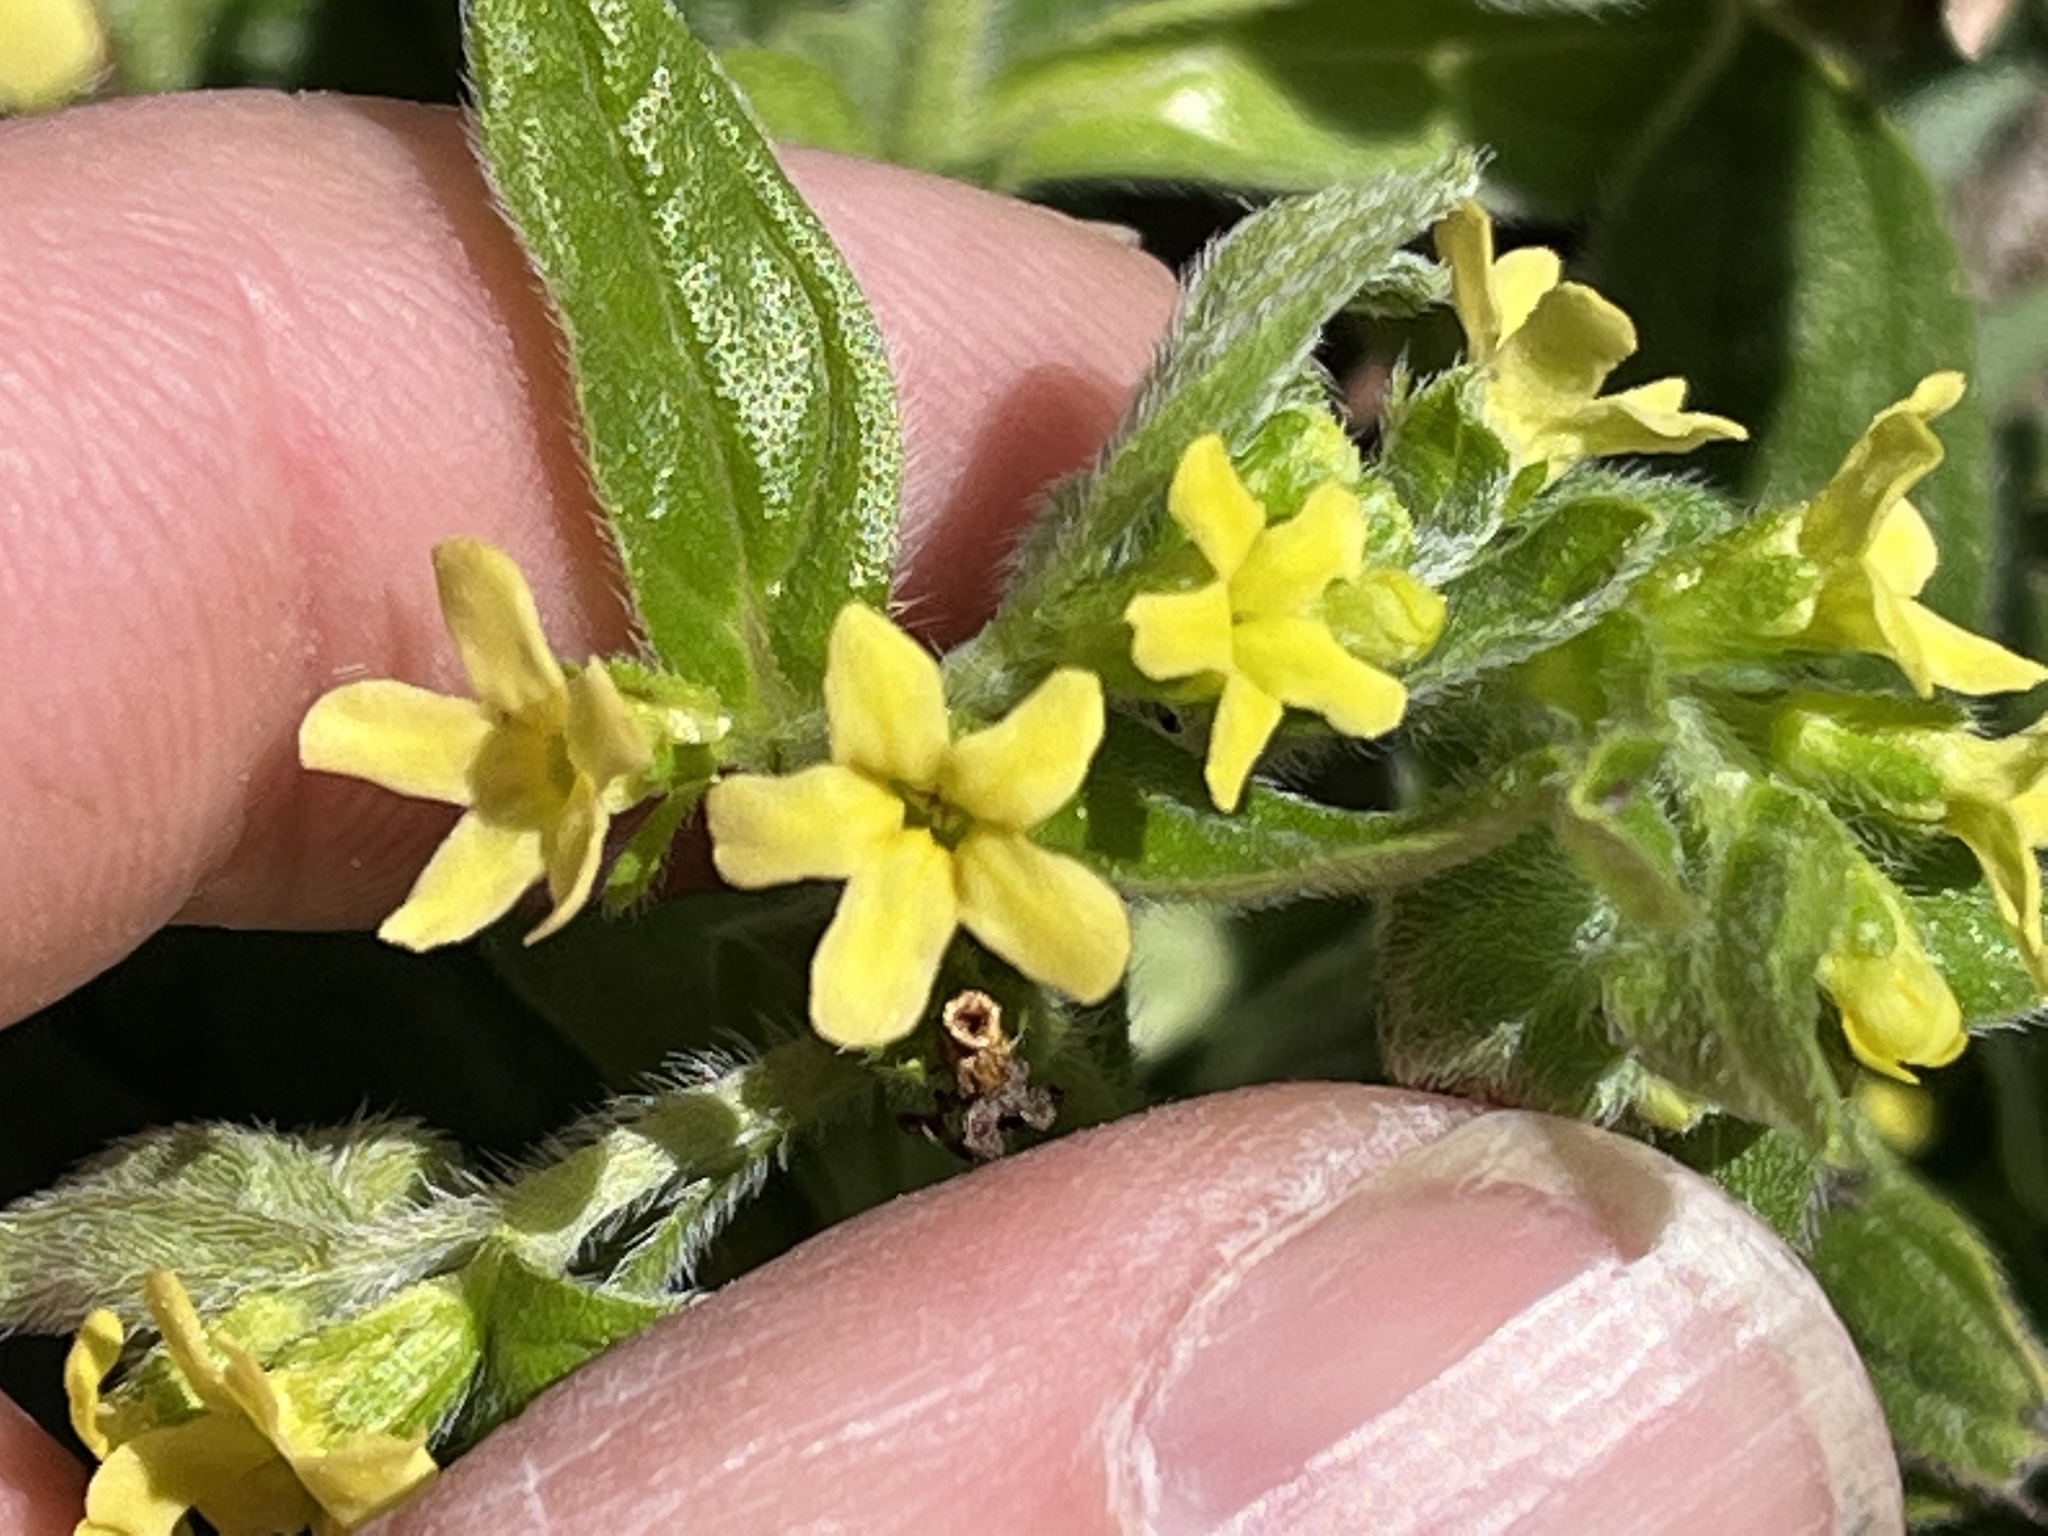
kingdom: Plantae
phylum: Tracheophyta
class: Magnoliopsida
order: Boraginales
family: Boraginaceae
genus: Lithospermum
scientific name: Lithospermum tuberosum
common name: Southern stoneseed
